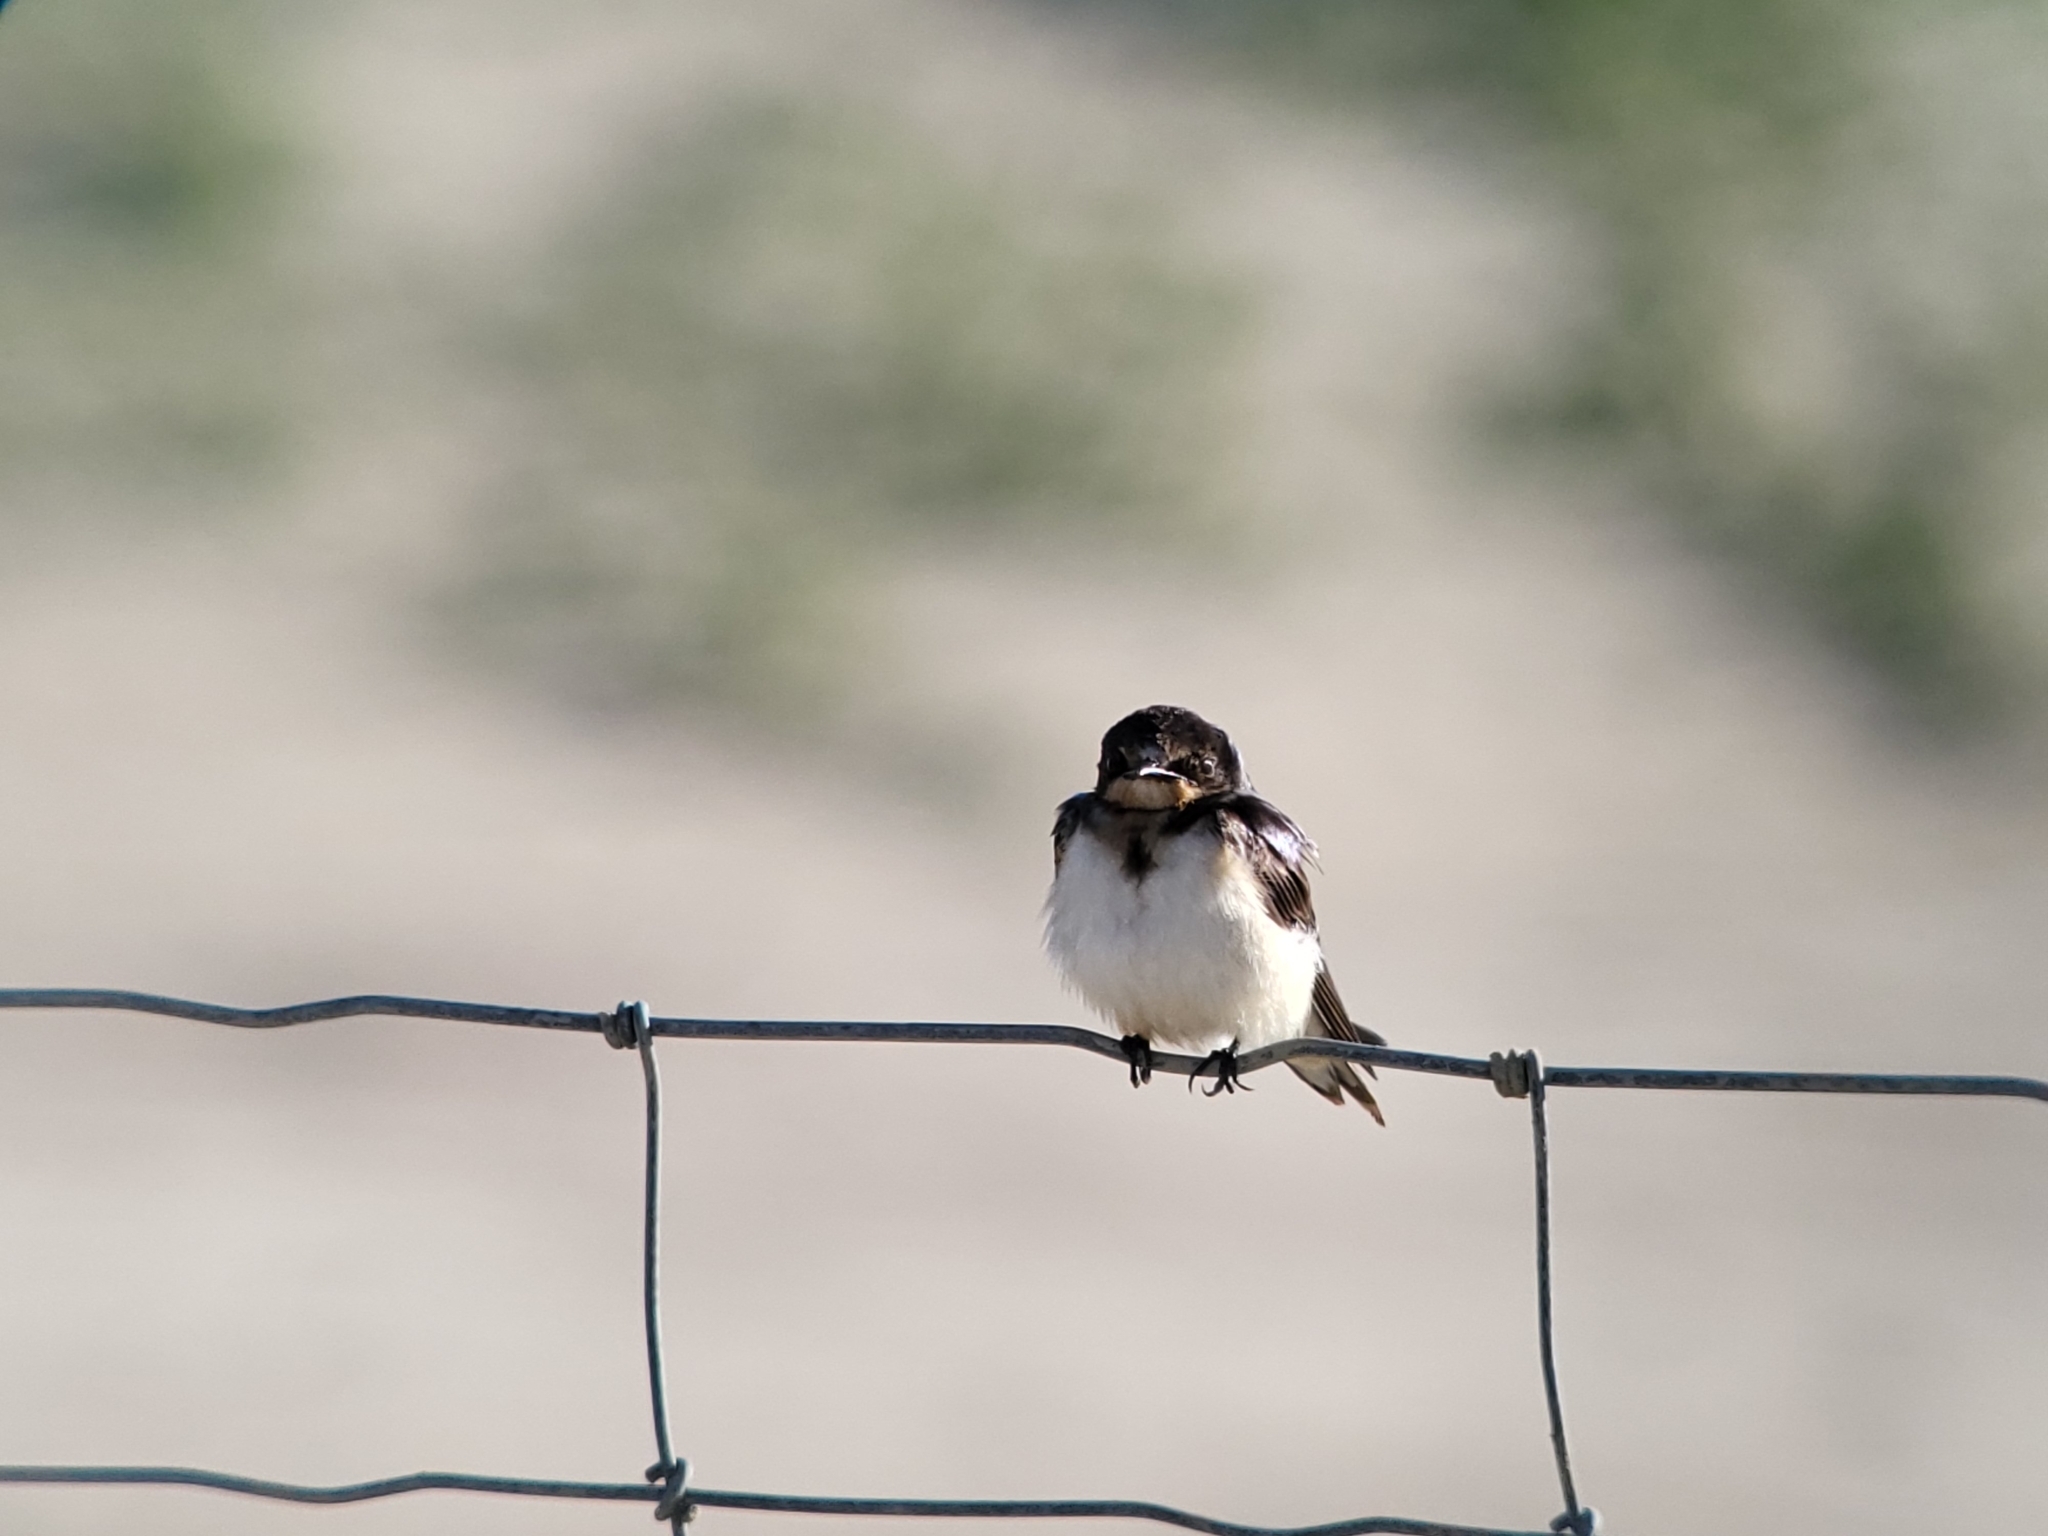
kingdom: Animalia
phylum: Chordata
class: Aves
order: Passeriformes
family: Hirundinidae
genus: Hirundo
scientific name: Hirundo rustica
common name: Barn swallow
